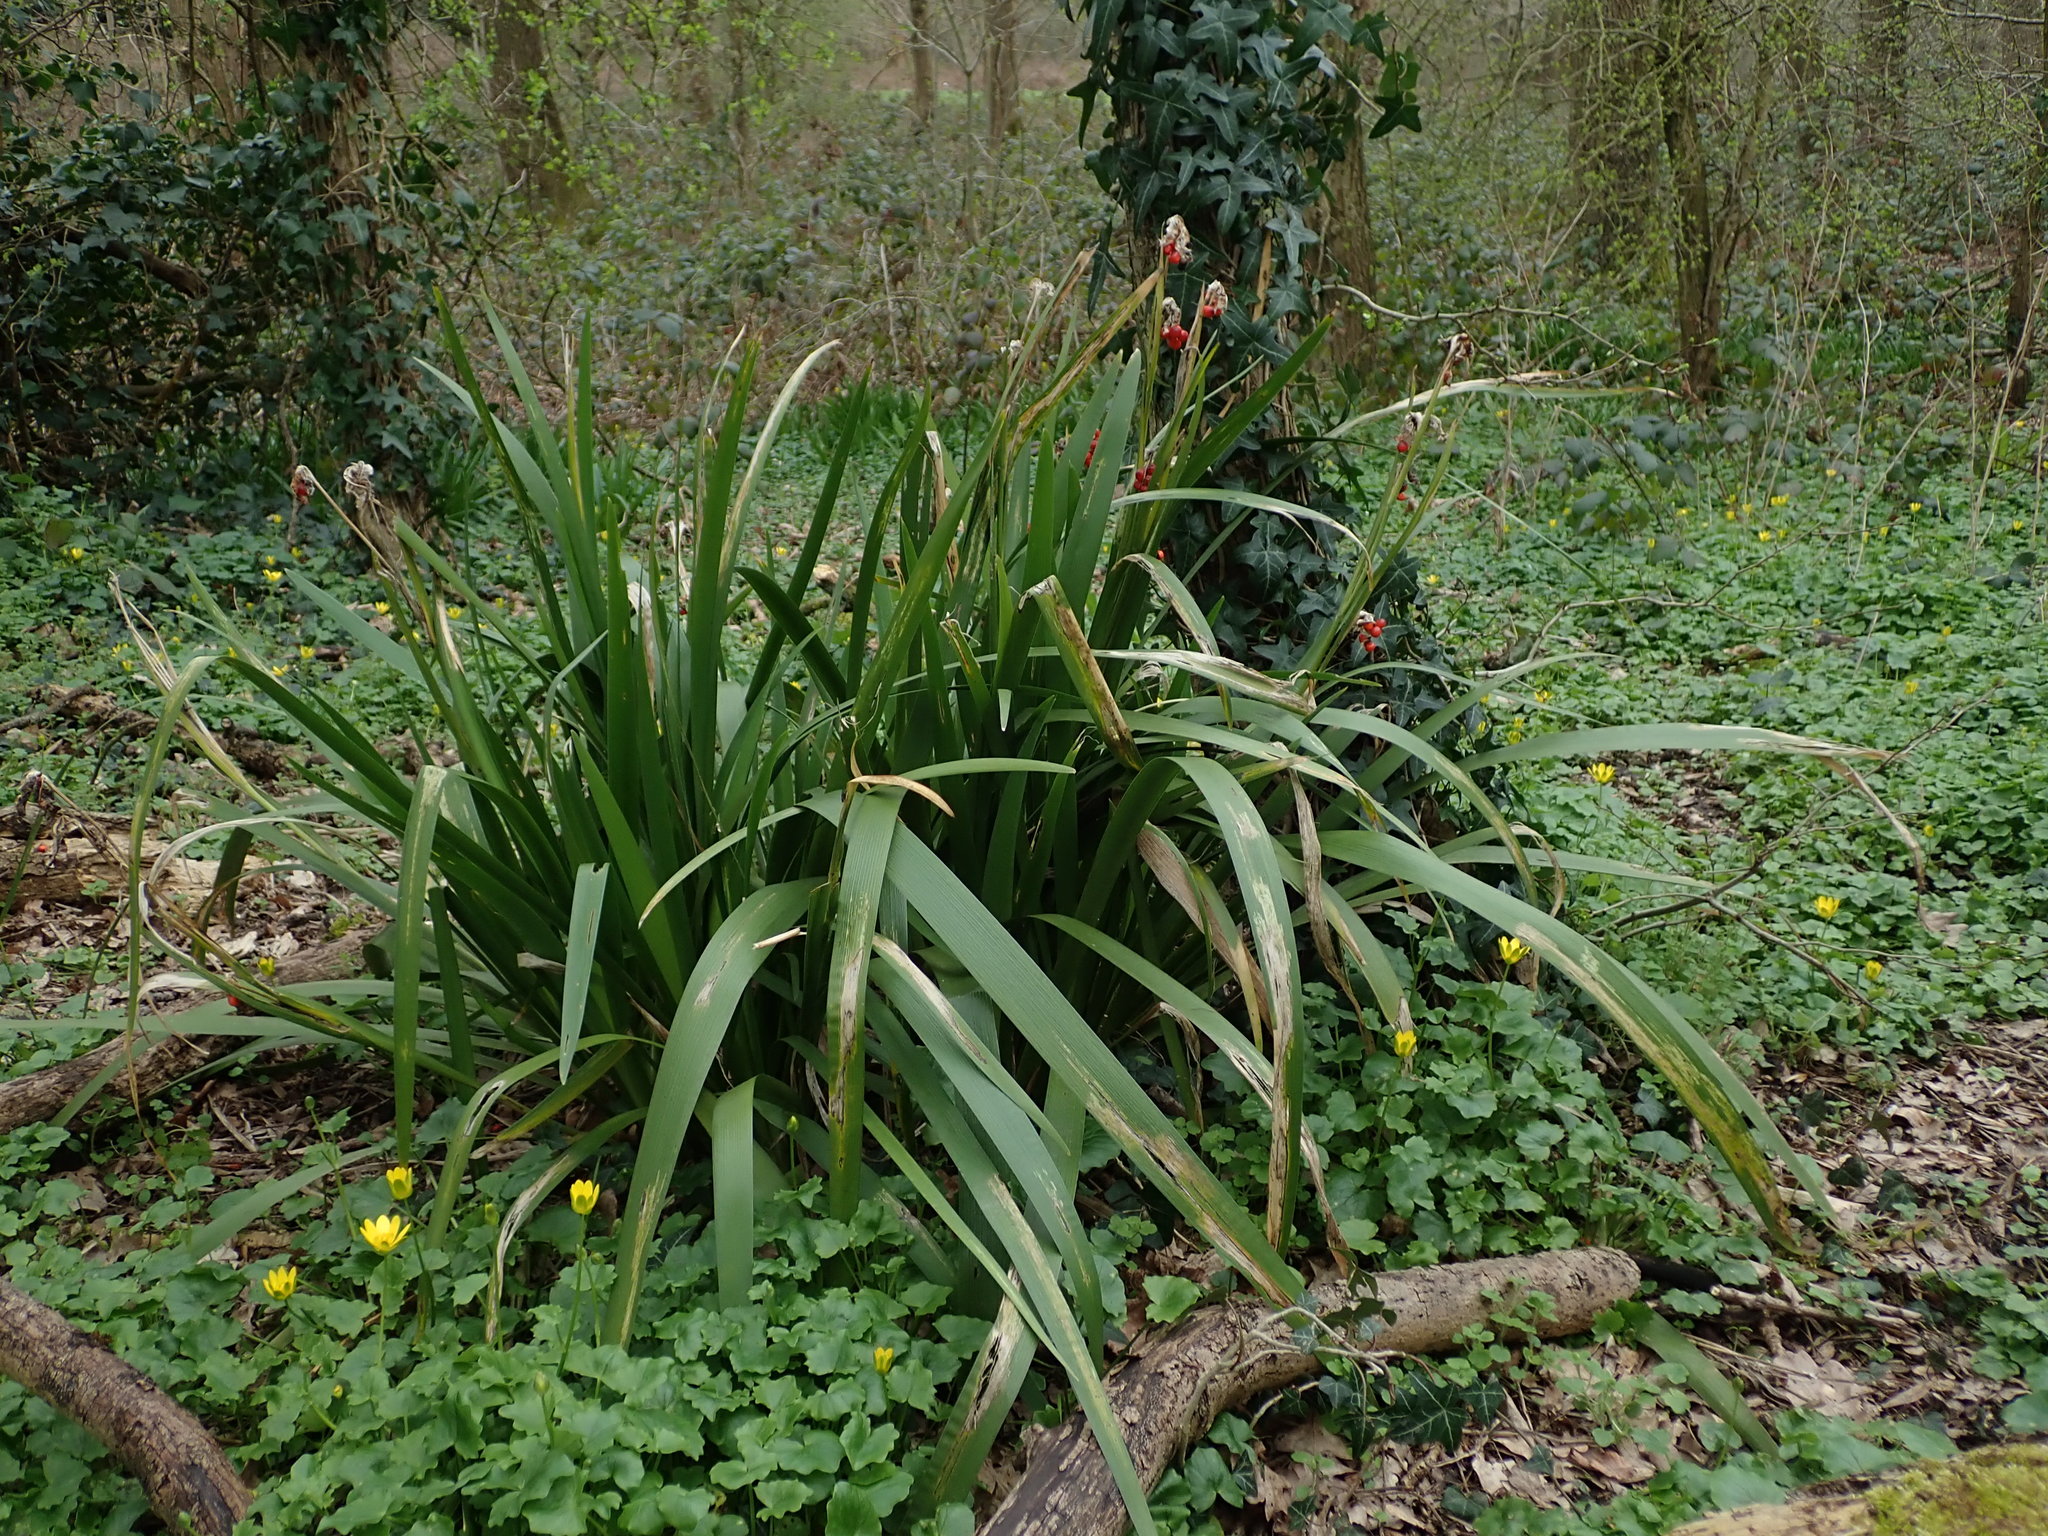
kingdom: Plantae
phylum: Tracheophyta
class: Liliopsida
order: Asparagales
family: Iridaceae
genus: Iris
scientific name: Iris foetidissima
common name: Stinking iris
